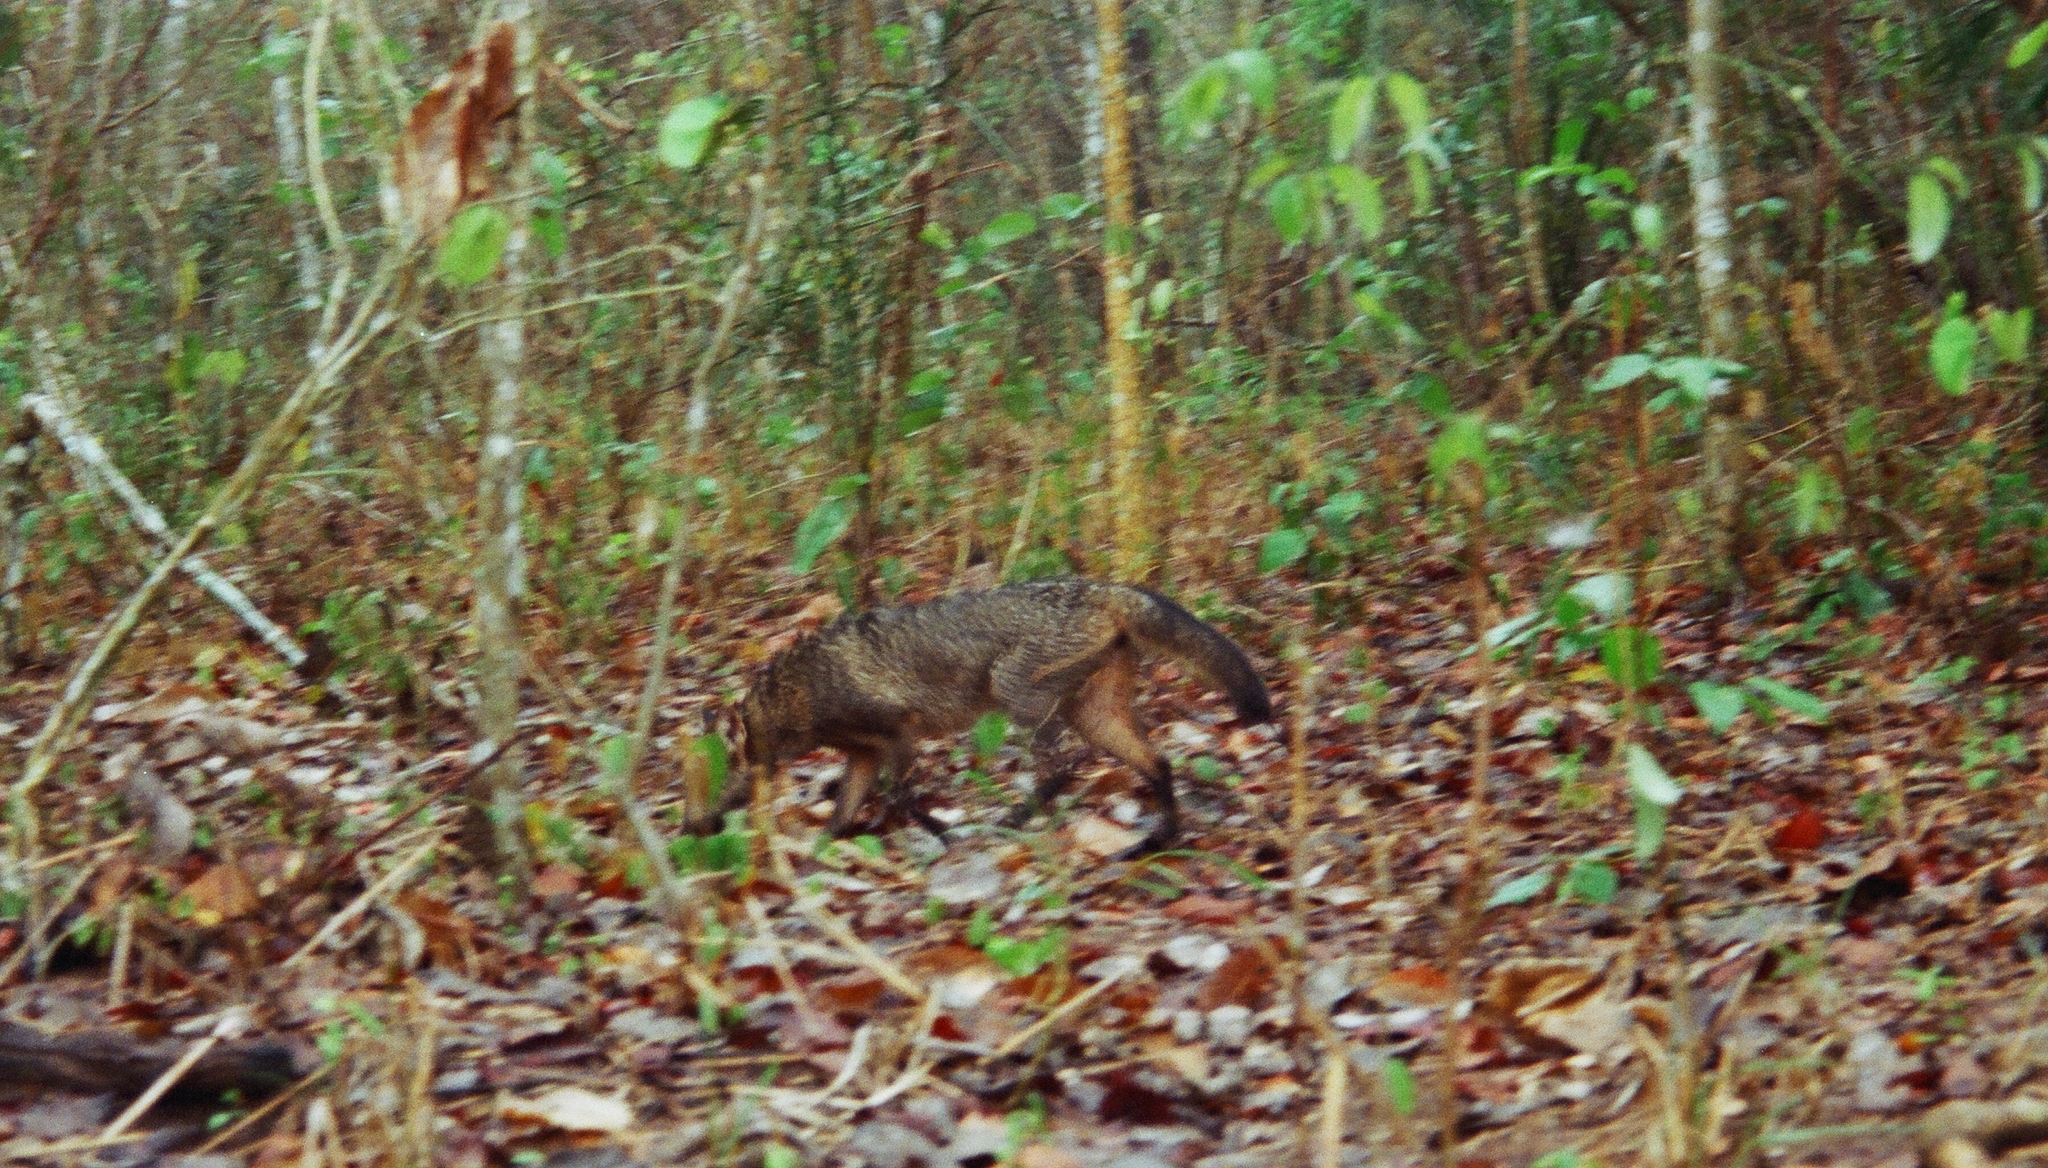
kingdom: Animalia
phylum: Chordata
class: Mammalia
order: Carnivora
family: Canidae
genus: Cerdocyon
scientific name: Cerdocyon thous
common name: Crab-eating fox
